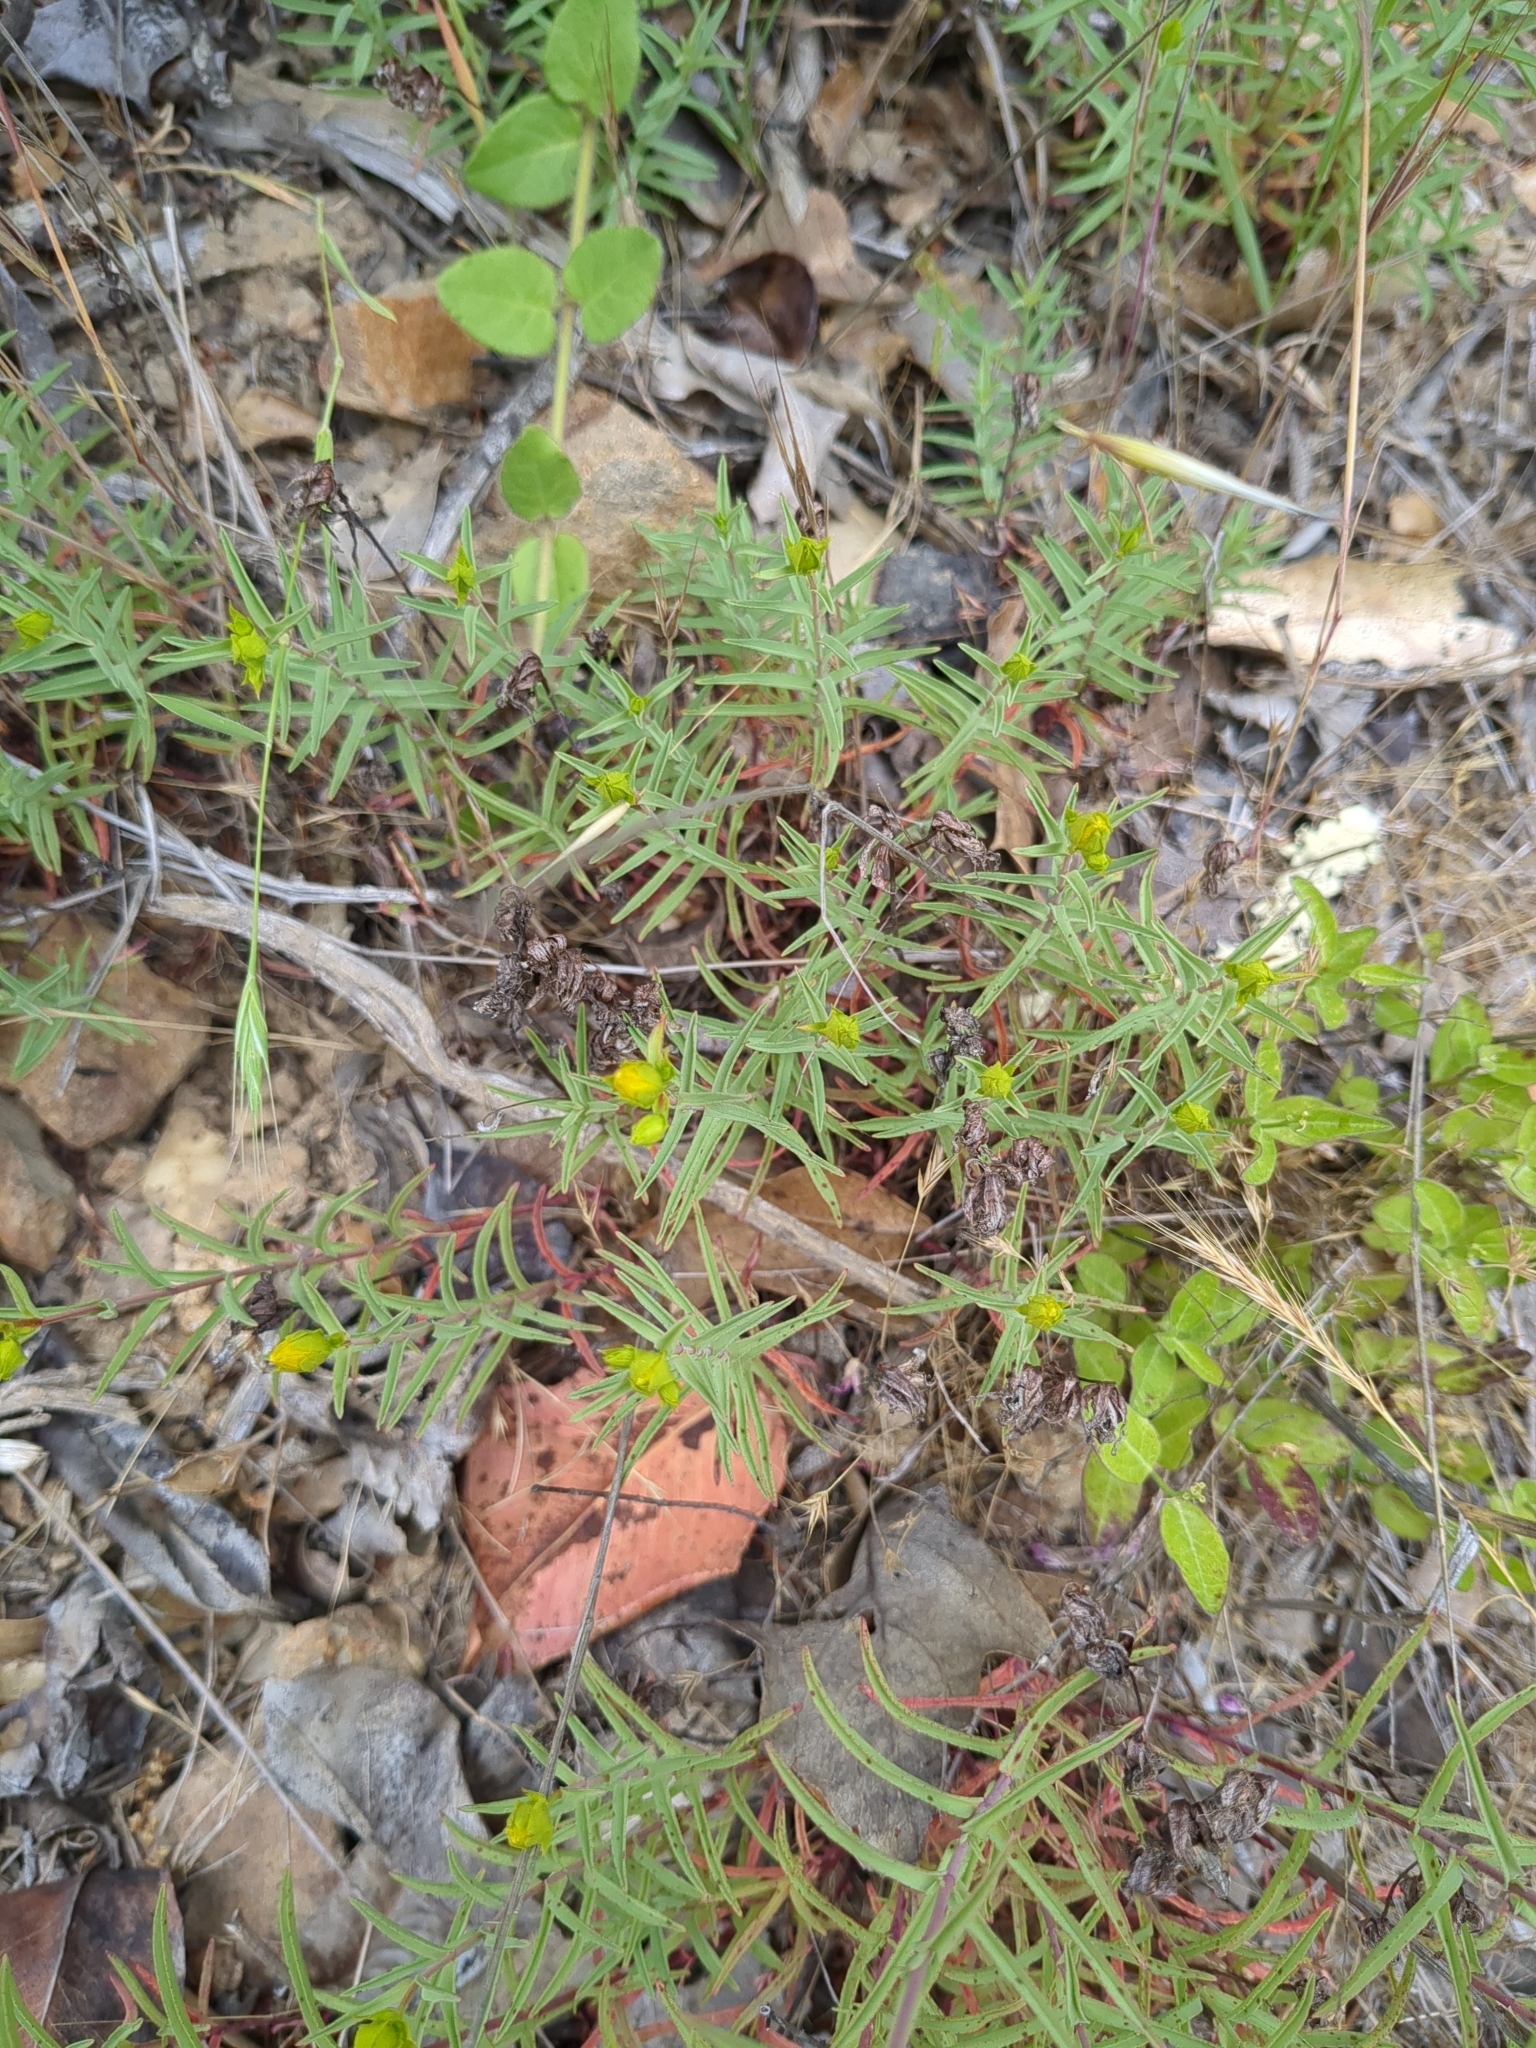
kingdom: Plantae
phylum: Tracheophyta
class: Magnoliopsida
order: Malpighiales
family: Hypericaceae
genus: Hypericum
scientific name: Hypericum concinnum
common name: Gold-wire
